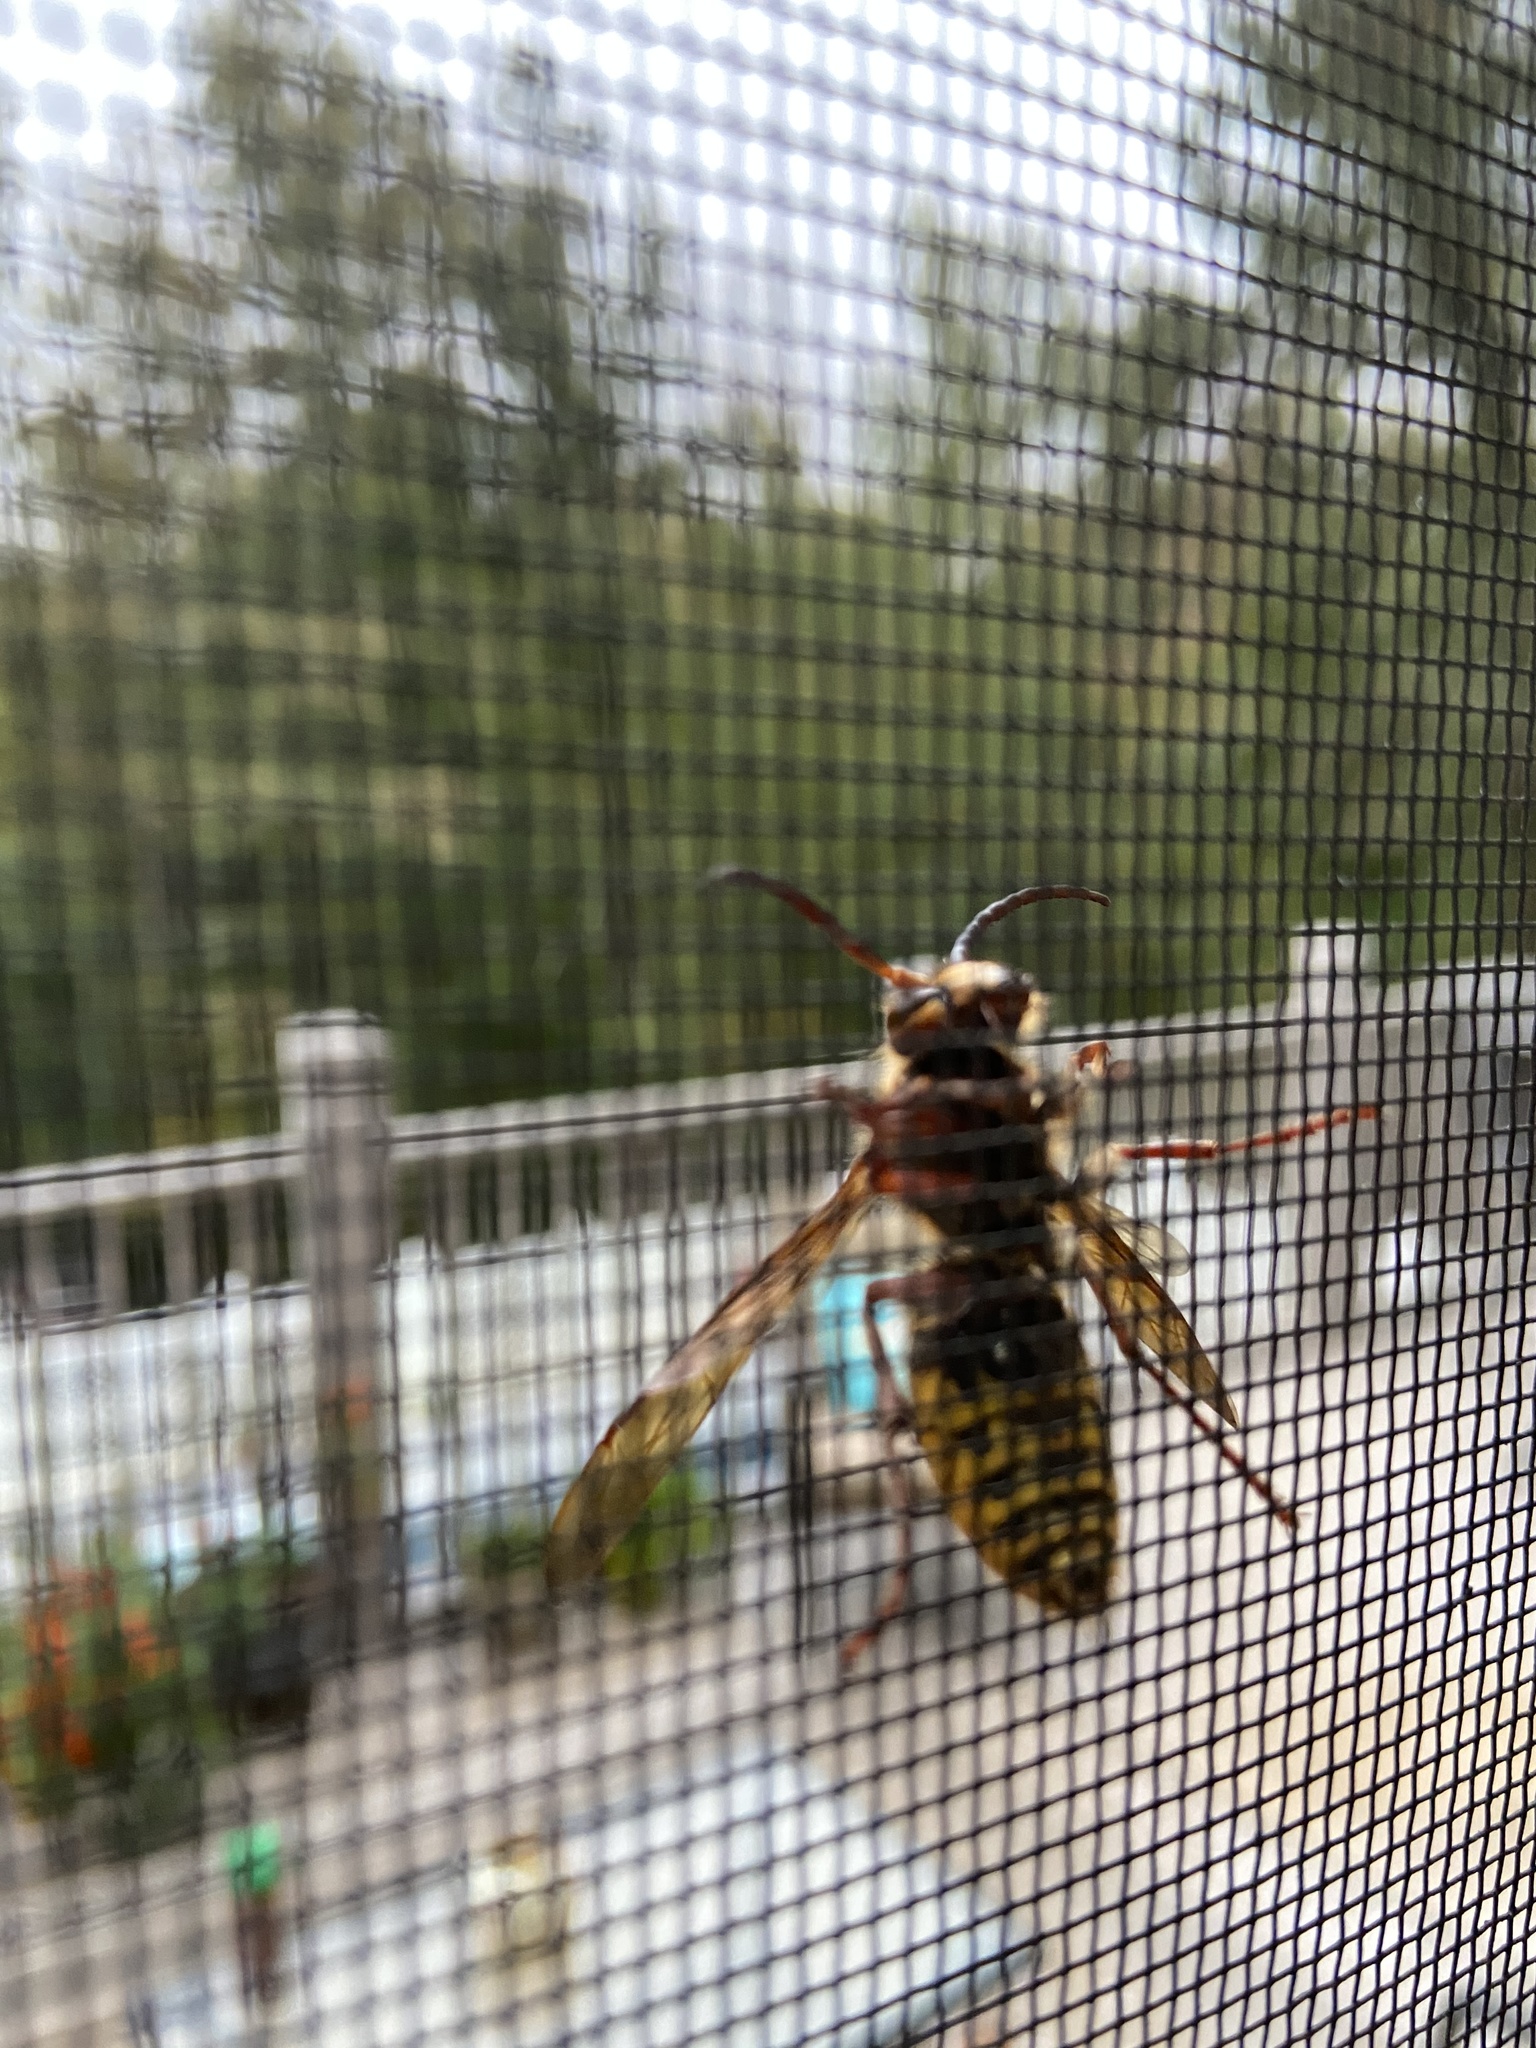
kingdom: Animalia
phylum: Arthropoda
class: Insecta
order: Hymenoptera
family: Vespidae
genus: Vespa
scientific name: Vespa crabro
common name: Hornet
